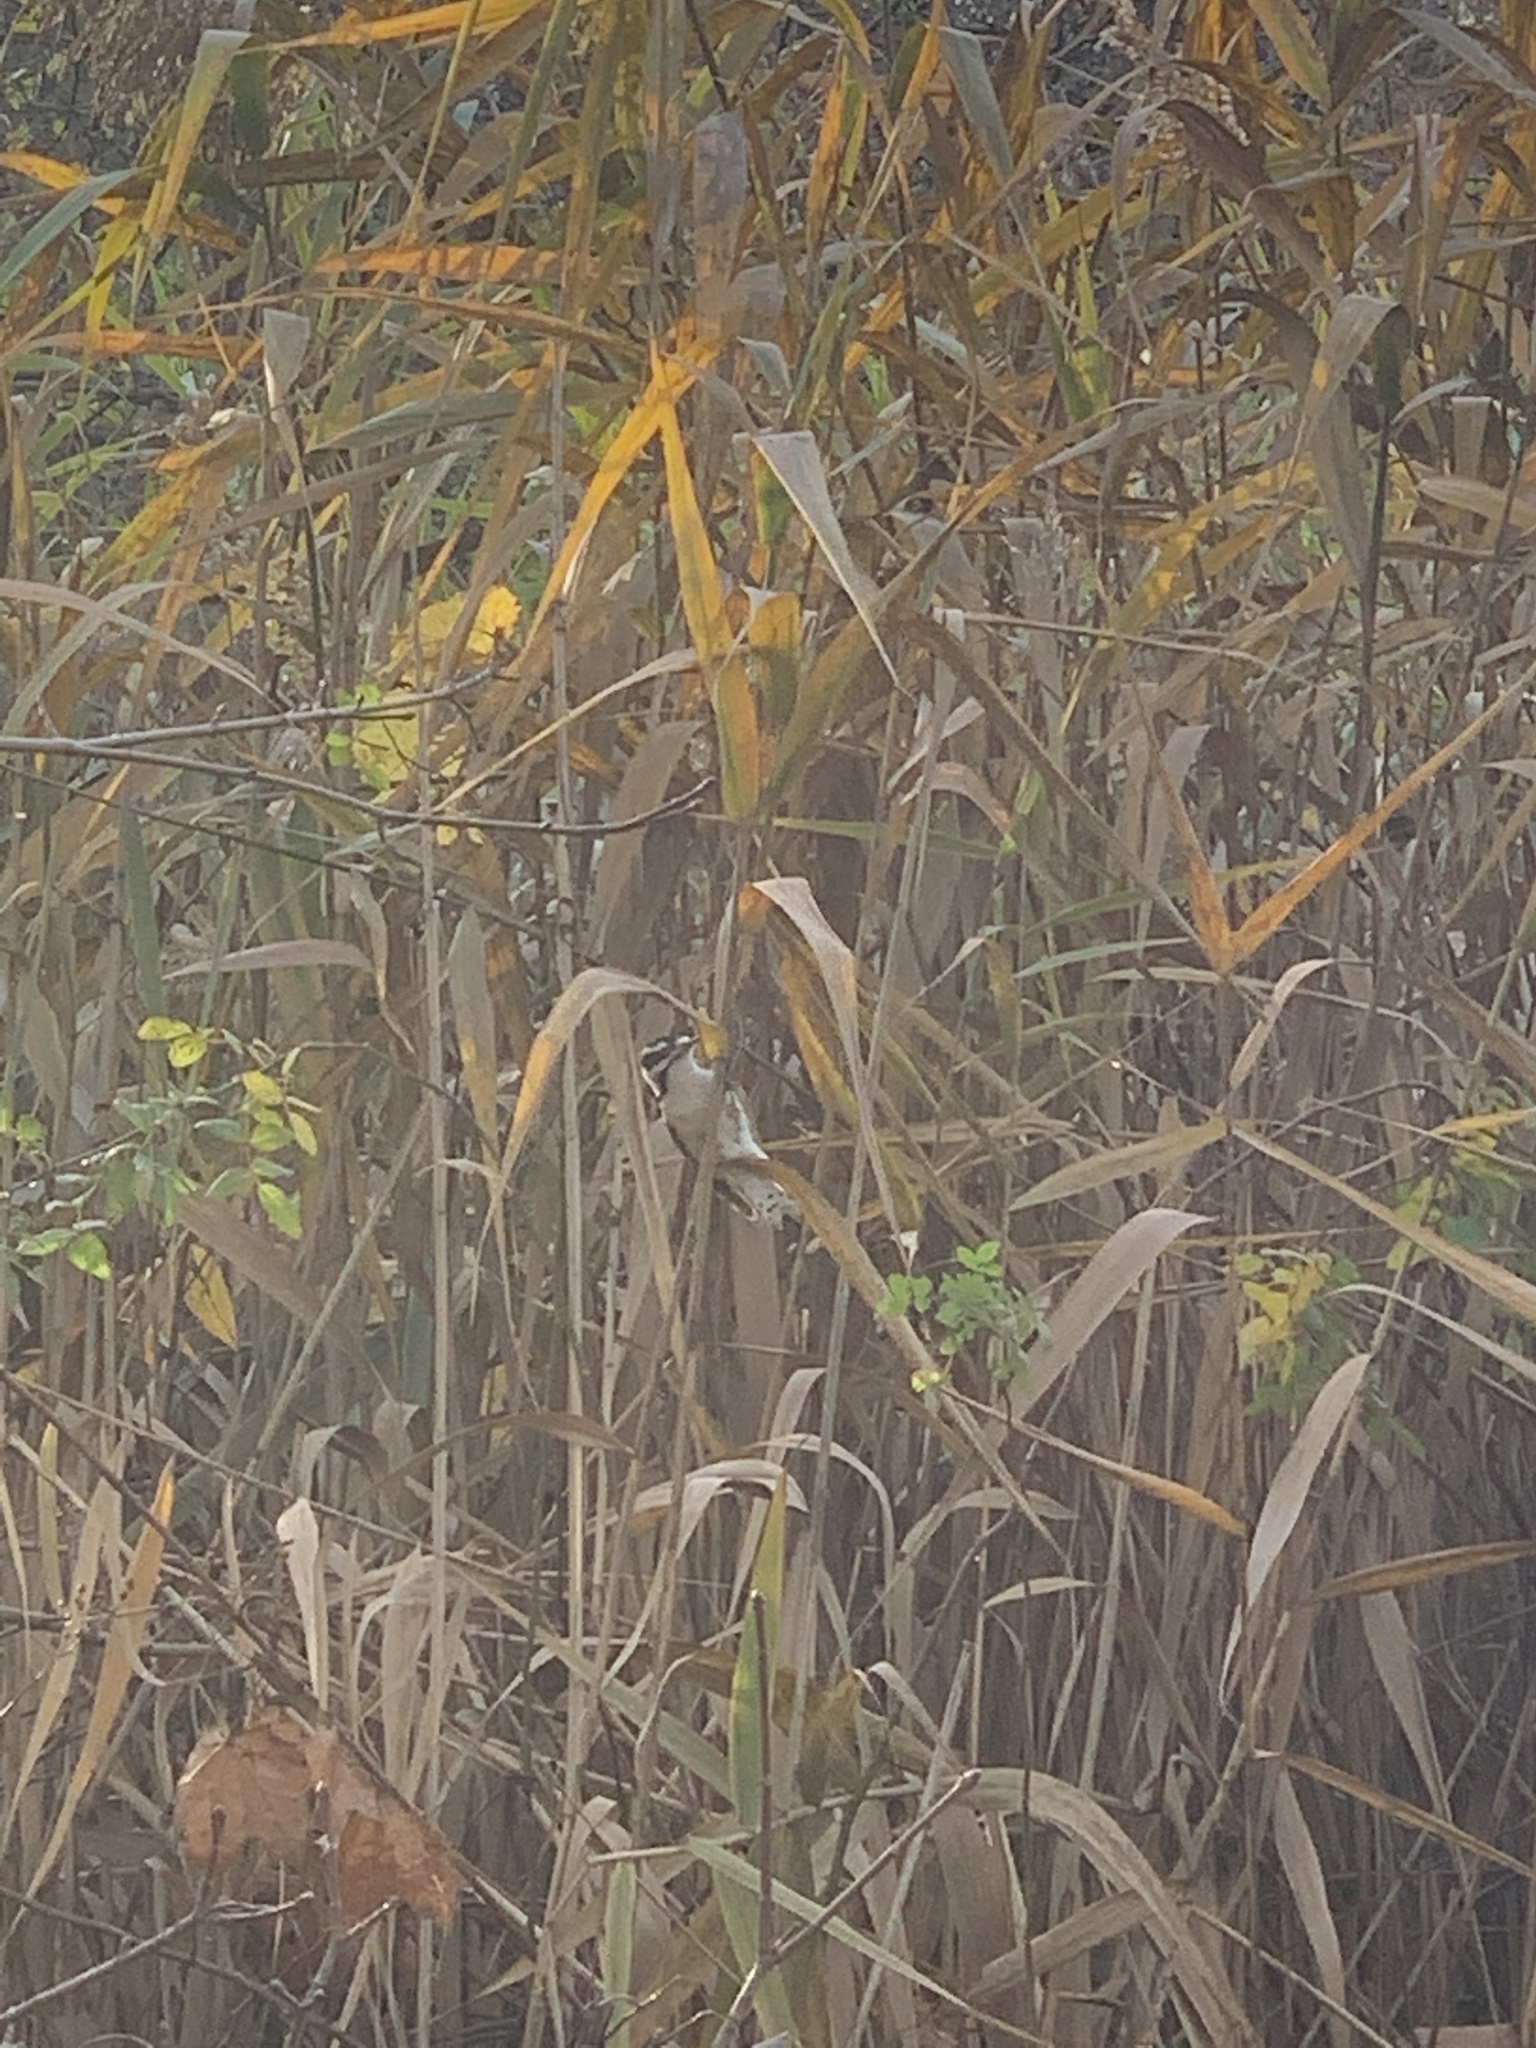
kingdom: Animalia
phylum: Chordata
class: Aves
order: Piciformes
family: Picidae
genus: Dryobates
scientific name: Dryobates pubescens
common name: Downy woodpecker
